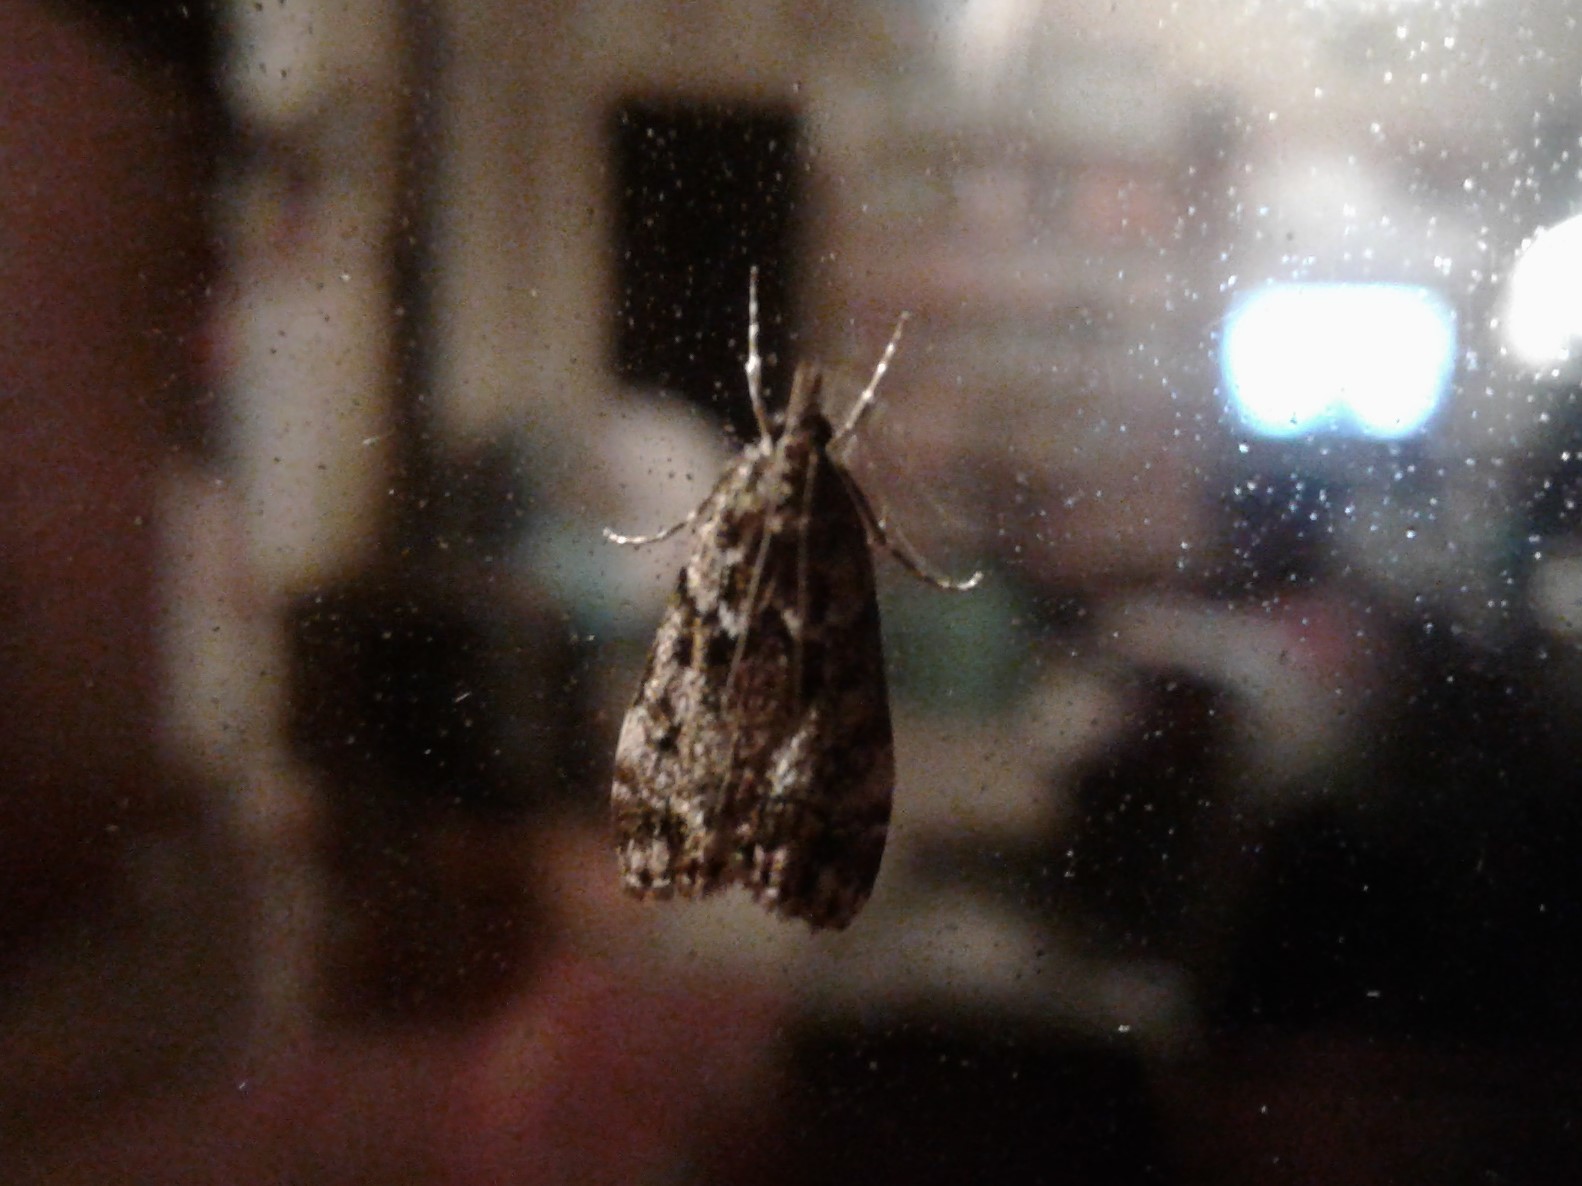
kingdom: Animalia
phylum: Arthropoda
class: Insecta
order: Lepidoptera
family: Crambidae
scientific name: Crambidae
